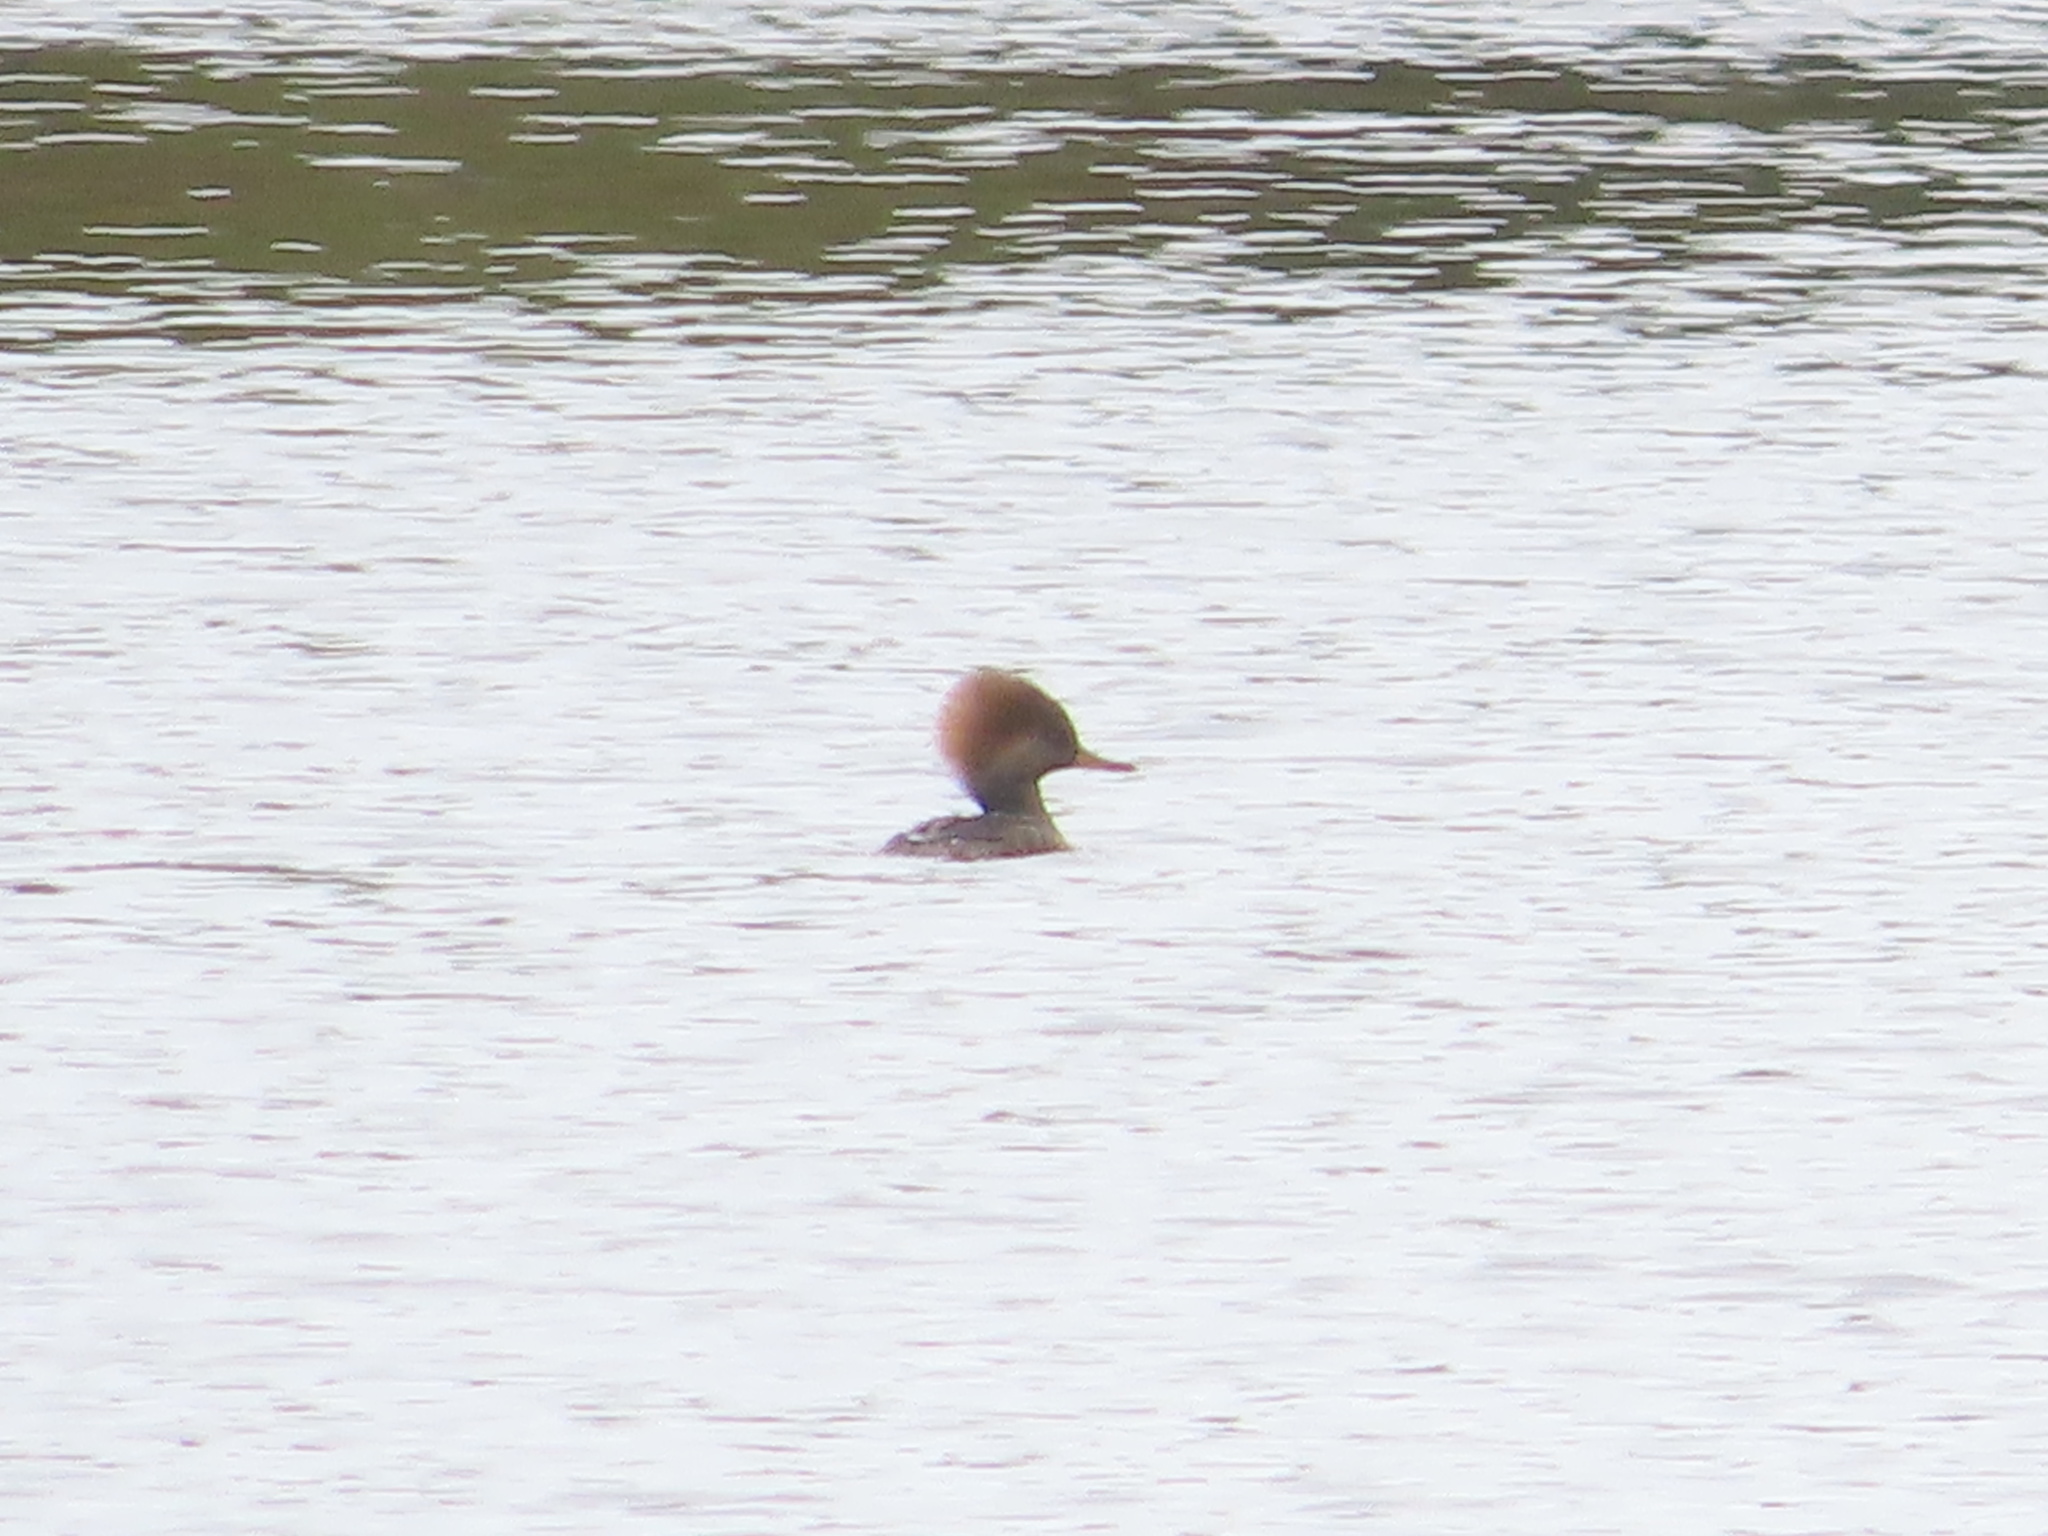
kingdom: Animalia
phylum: Chordata
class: Aves
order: Anseriformes
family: Anatidae
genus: Lophodytes
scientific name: Lophodytes cucullatus
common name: Hooded merganser
